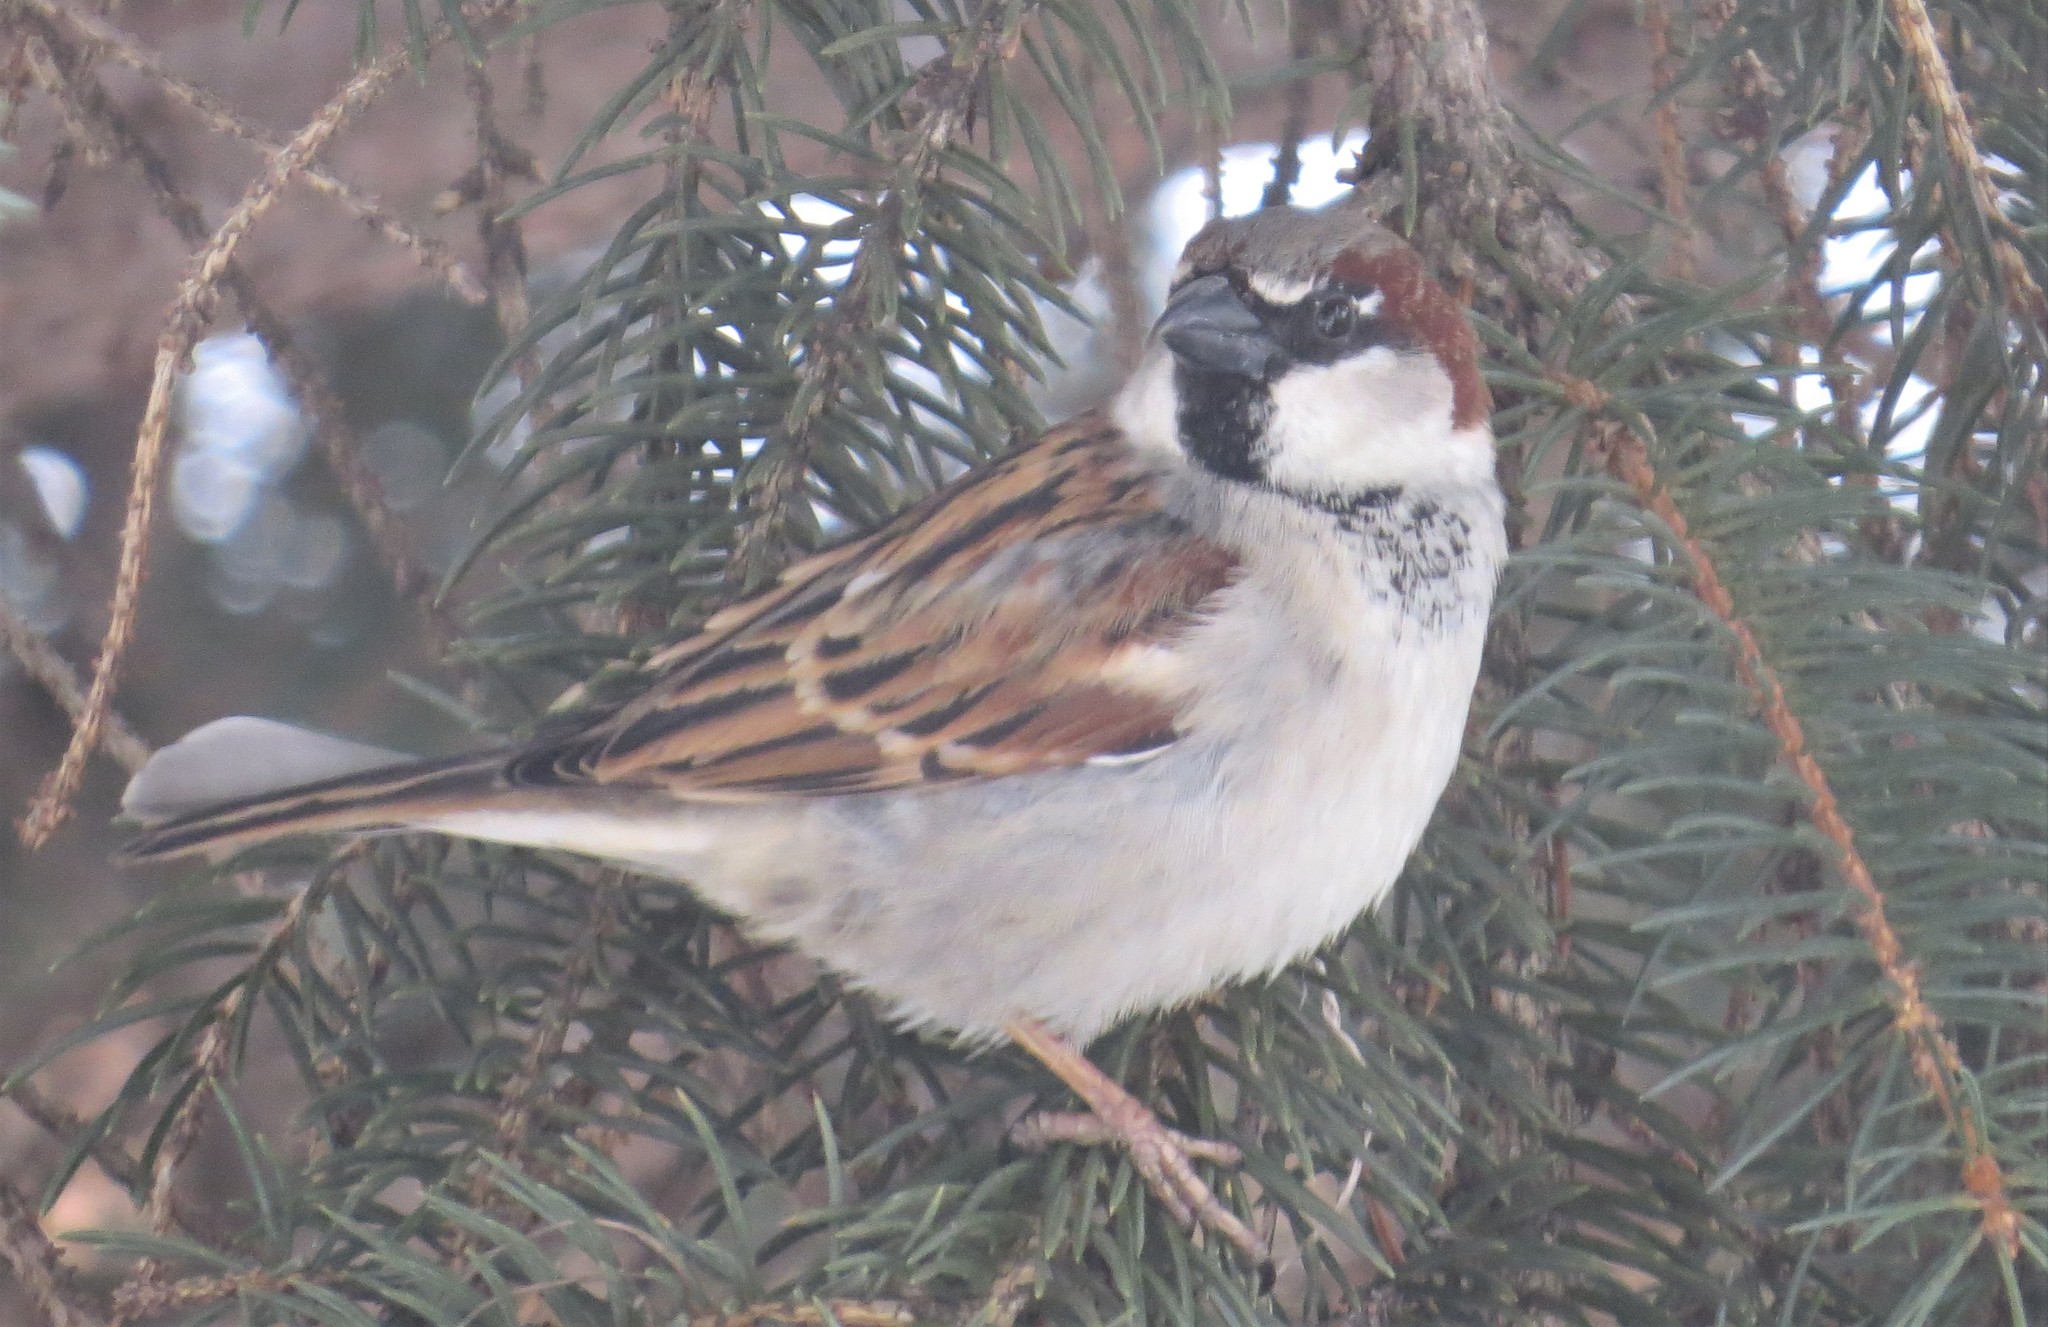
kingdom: Animalia
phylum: Chordata
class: Aves
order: Passeriformes
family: Passeridae
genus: Passer
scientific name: Passer domesticus
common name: House sparrow
